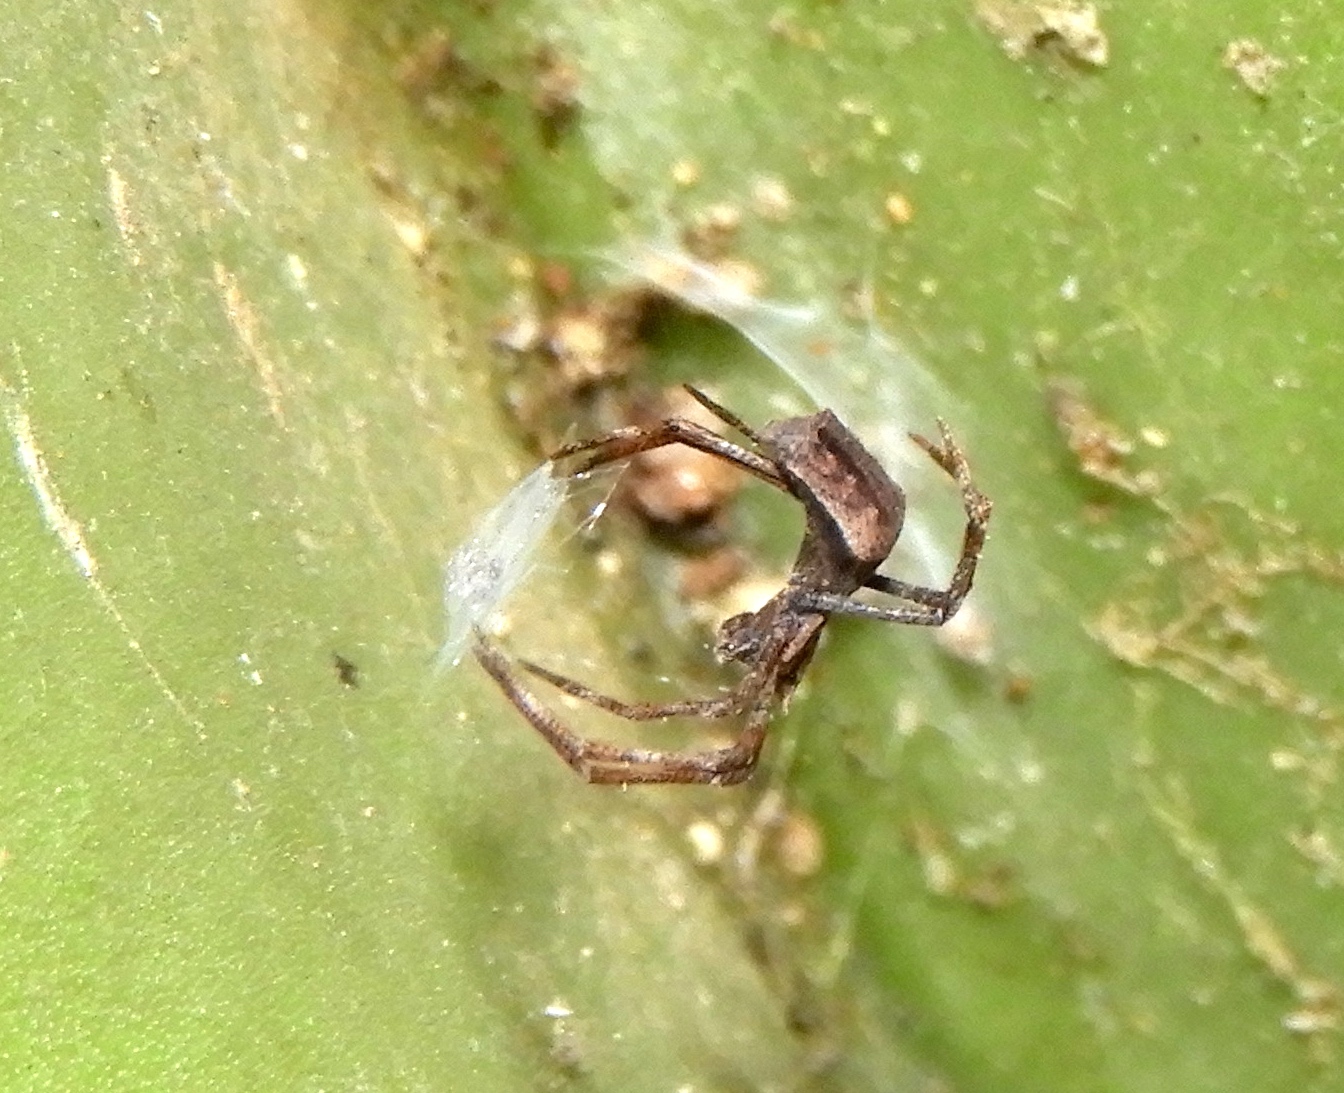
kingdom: Animalia
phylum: Arthropoda
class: Arachnida
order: Araneae
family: Deinopidae
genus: Deinopis
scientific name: Deinopis aurita
